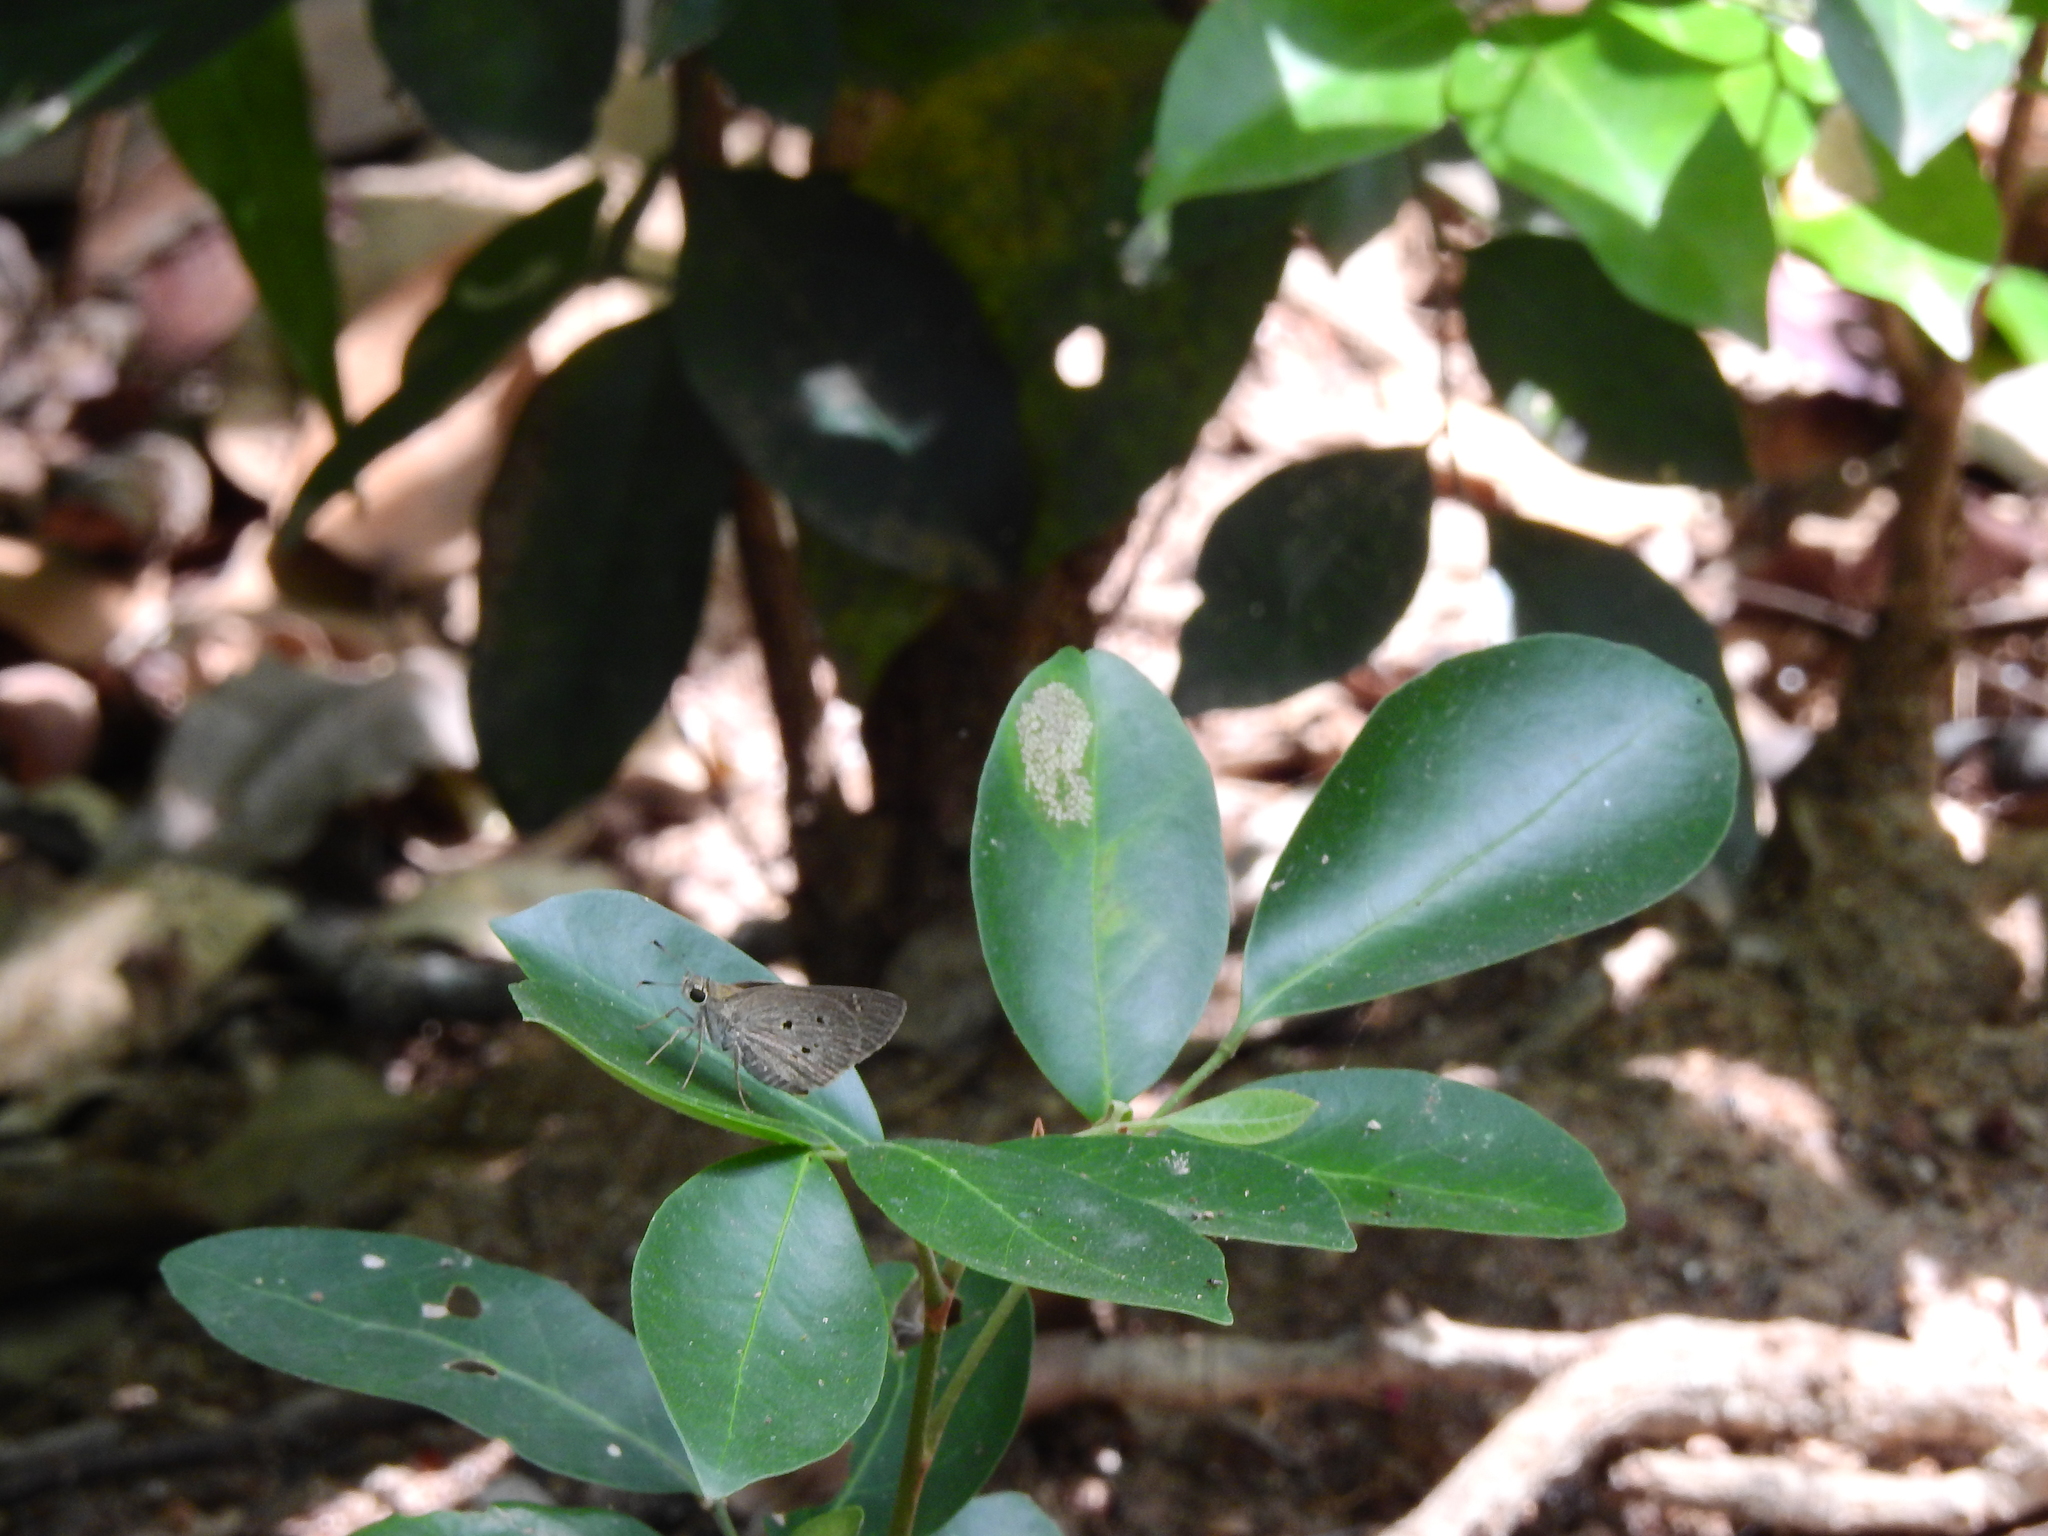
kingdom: Animalia
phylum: Arthropoda
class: Insecta
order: Lepidoptera
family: Hesperiidae
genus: Suastus
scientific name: Suastus gremius
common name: Indian palm bob
